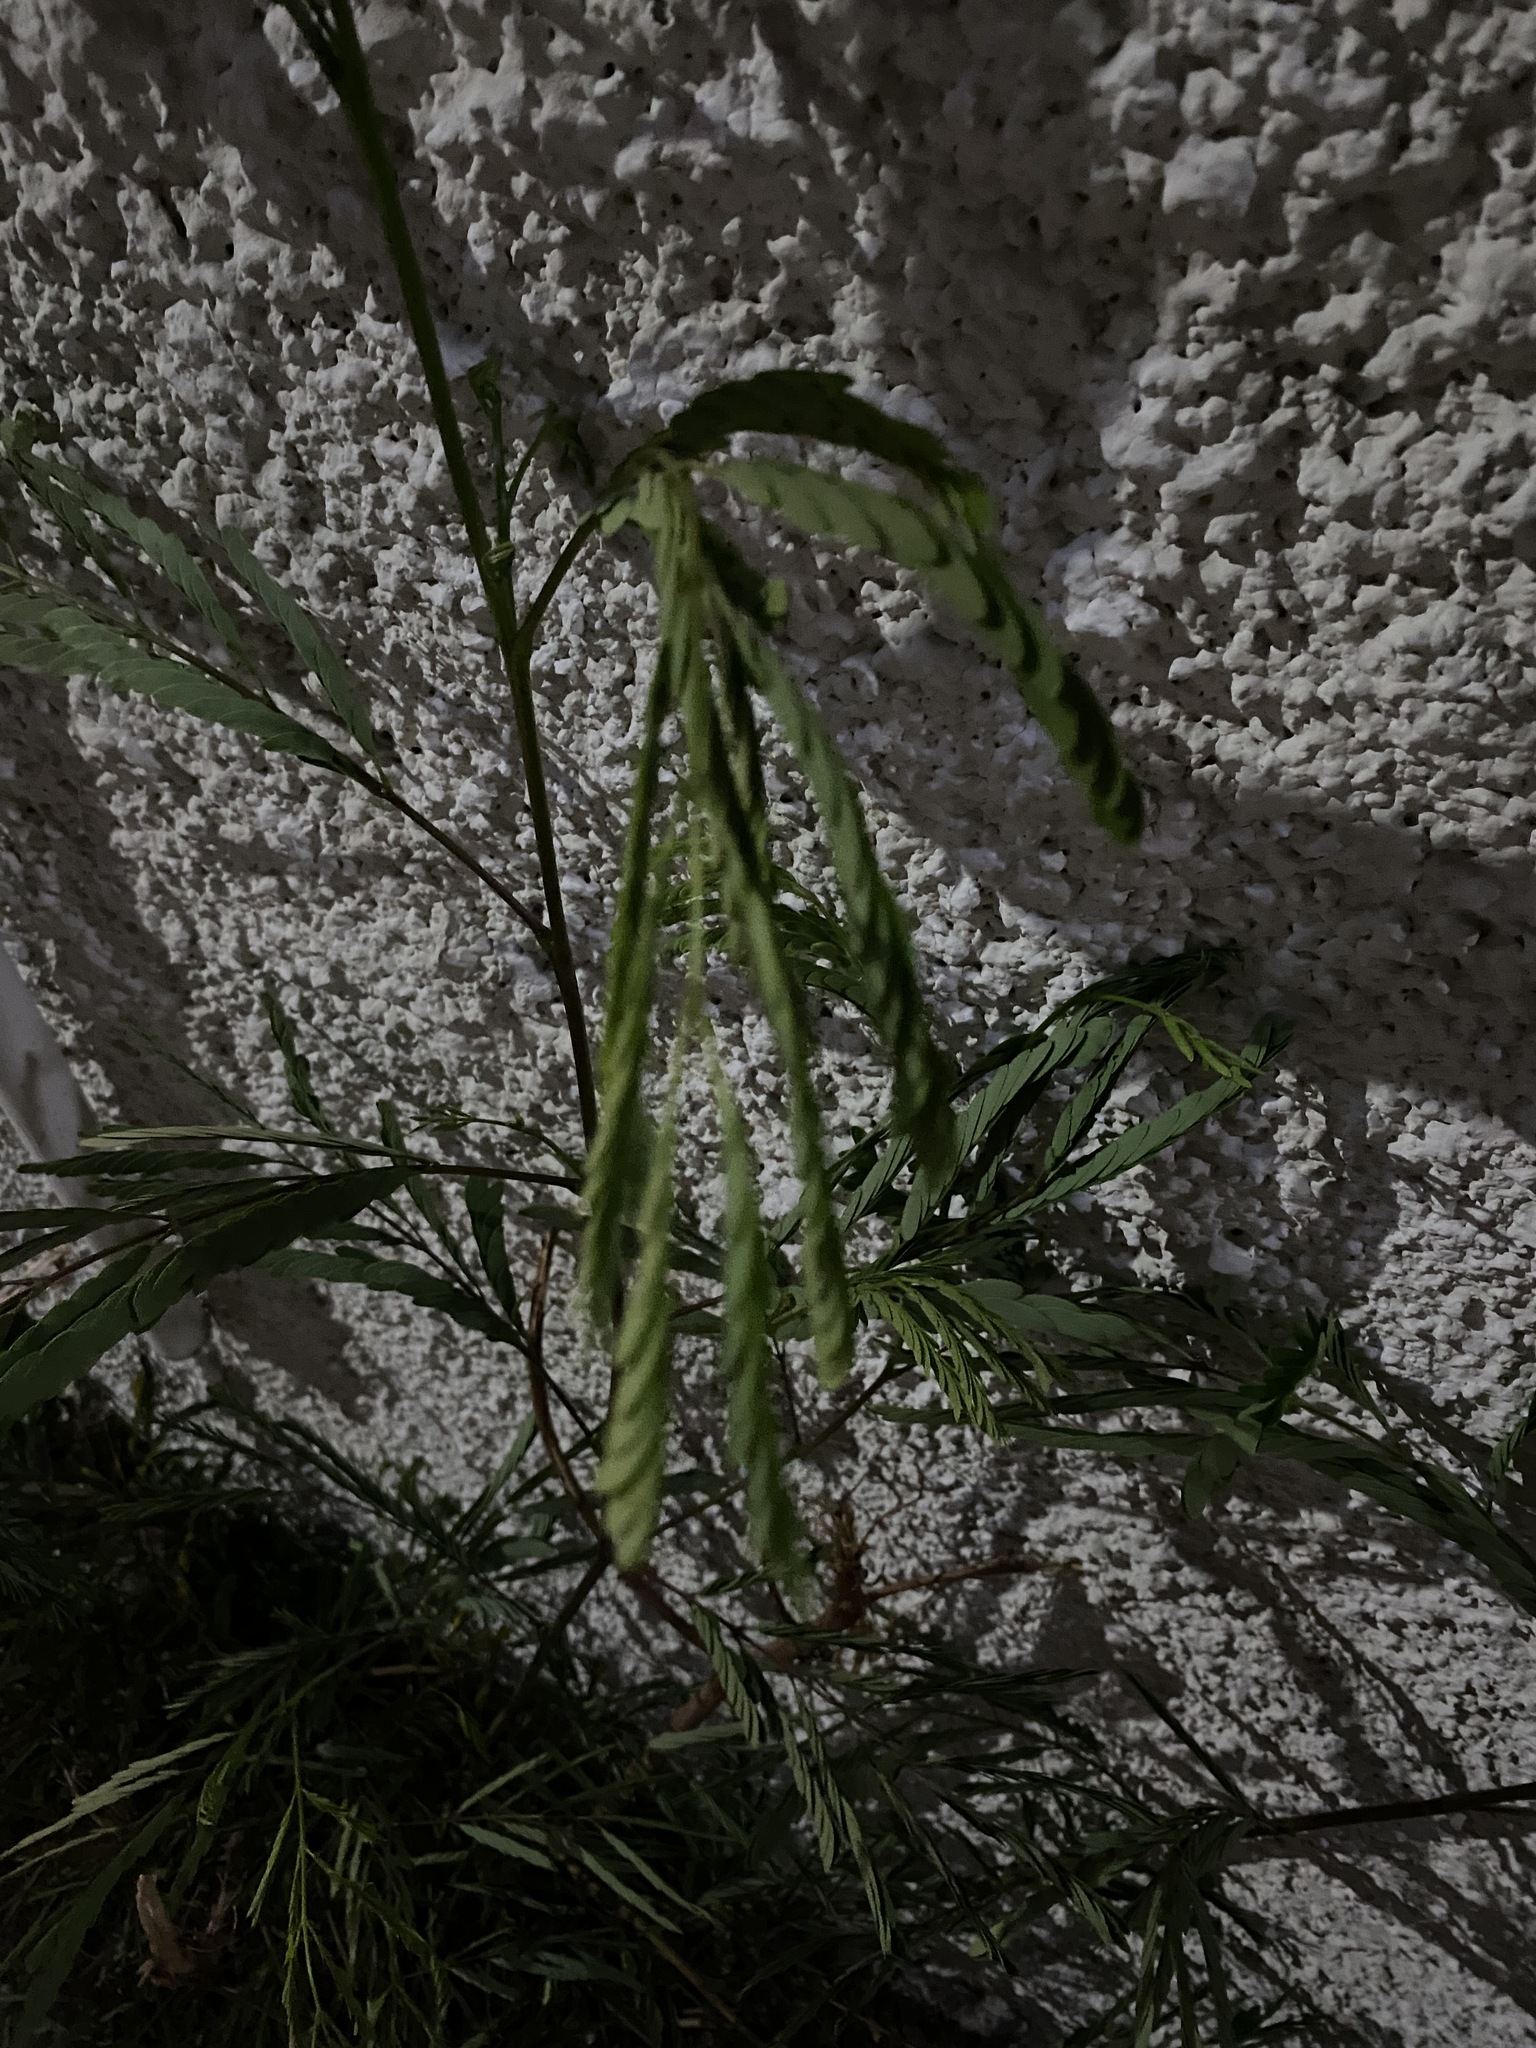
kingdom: Plantae
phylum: Tracheophyta
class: Magnoliopsida
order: Fabales
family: Fabaceae
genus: Leucaena
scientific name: Leucaena leucocephala
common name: White leadtree
